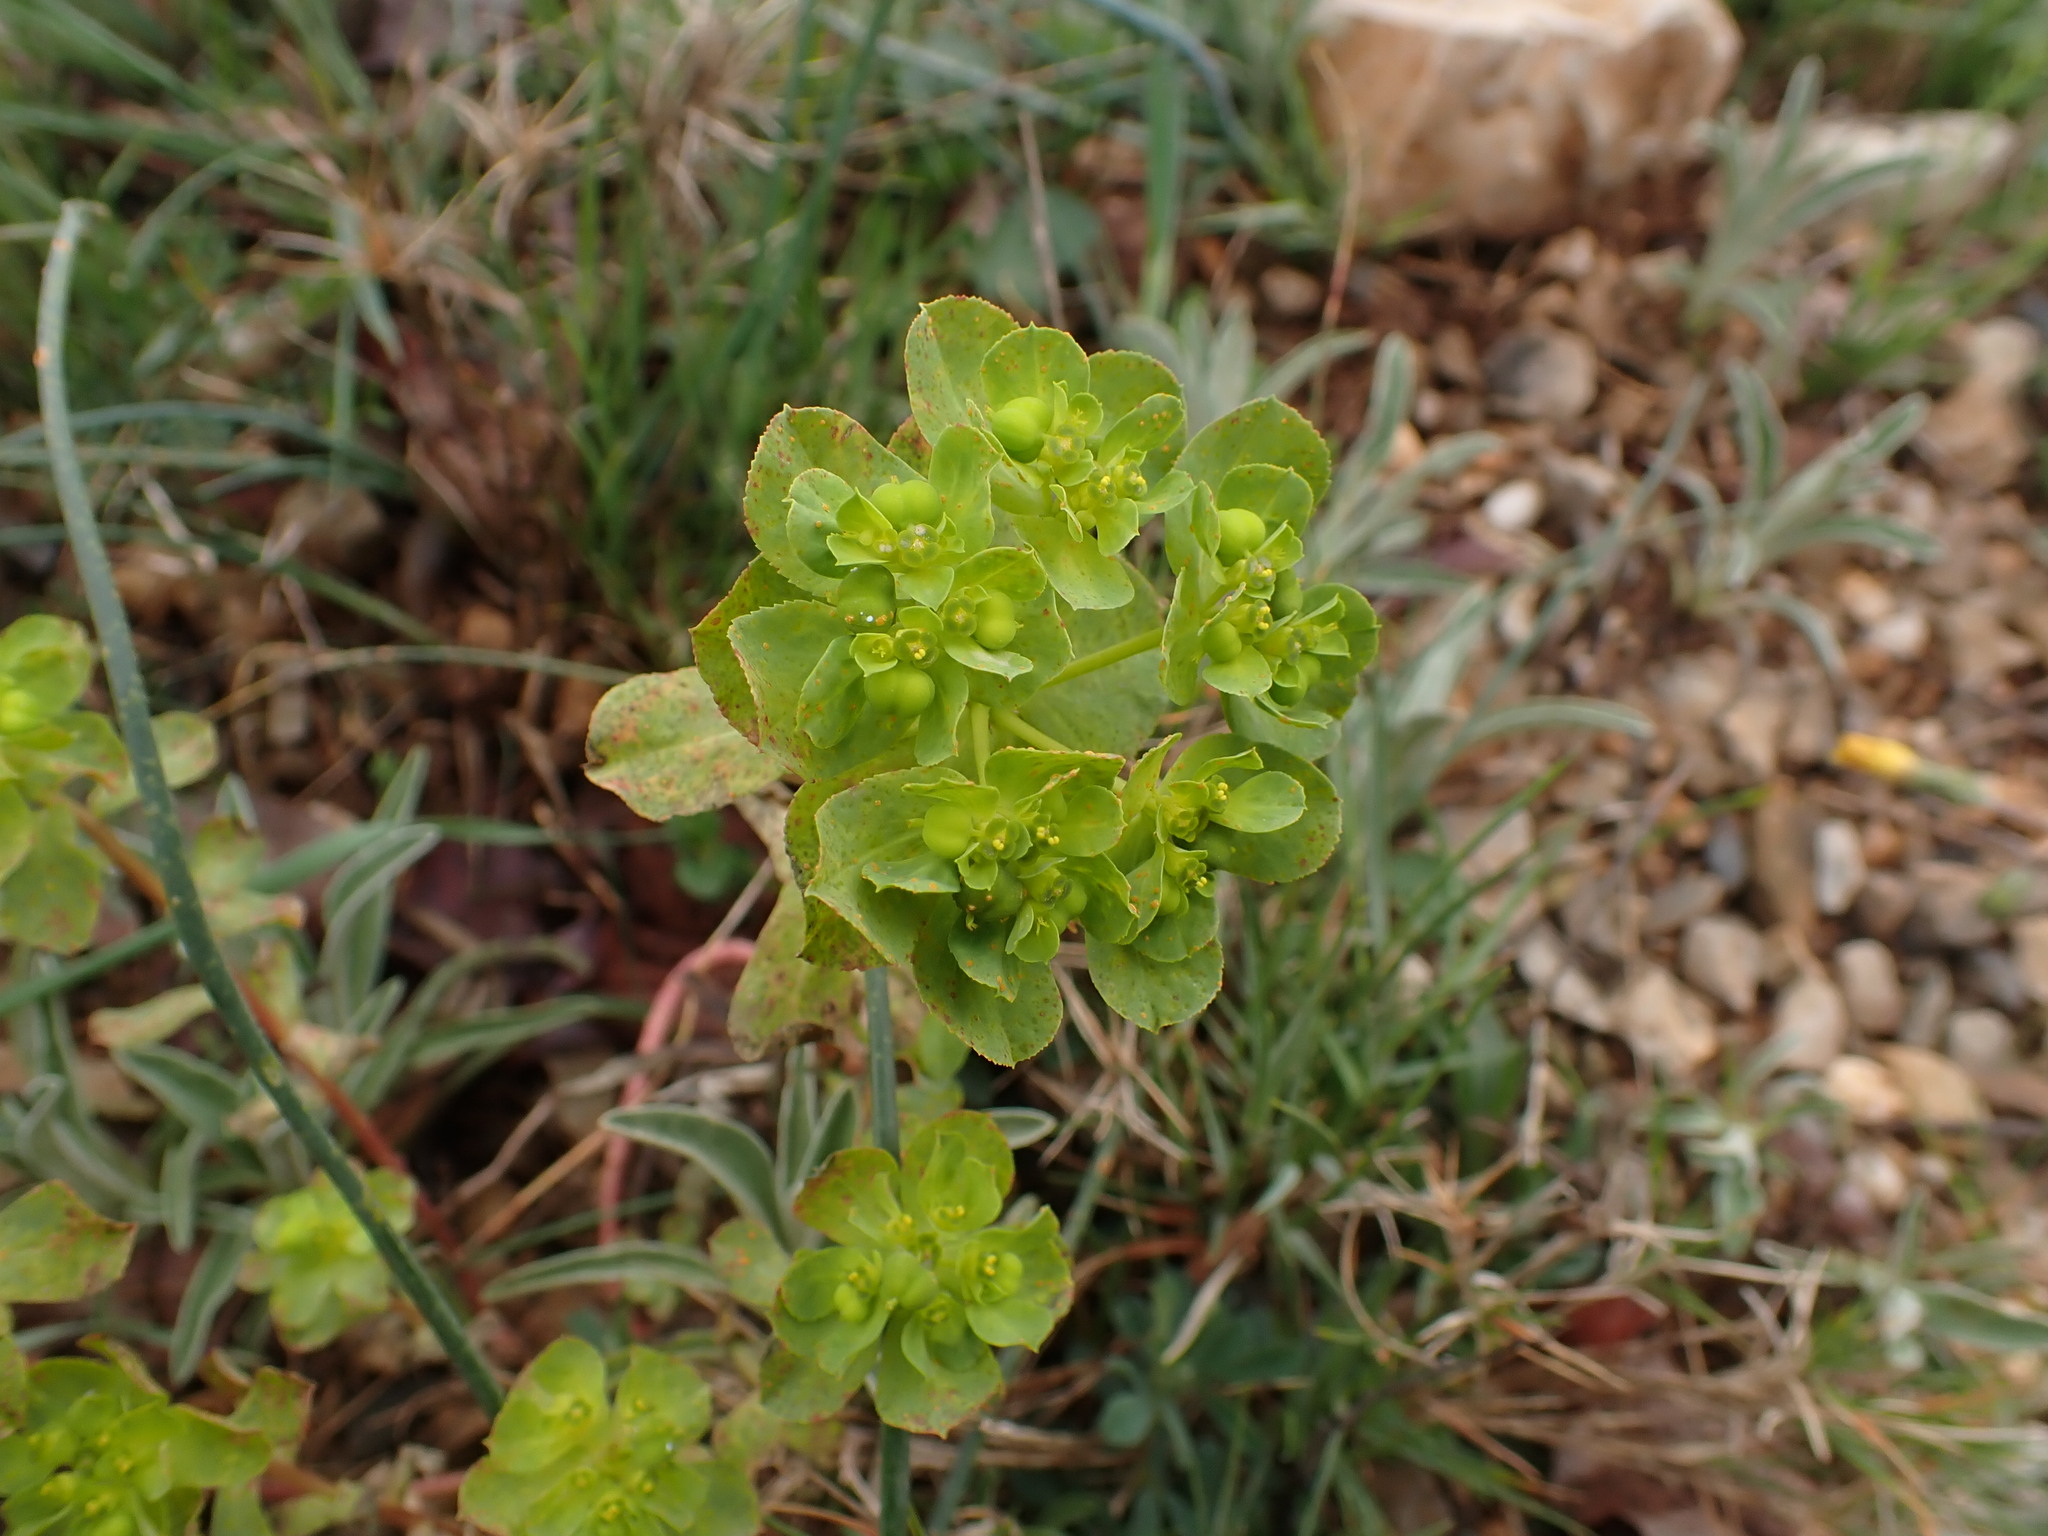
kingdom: Plantae
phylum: Tracheophyta
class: Magnoliopsida
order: Malpighiales
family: Euphorbiaceae
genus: Euphorbia
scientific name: Euphorbia helioscopia
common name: Sun spurge
